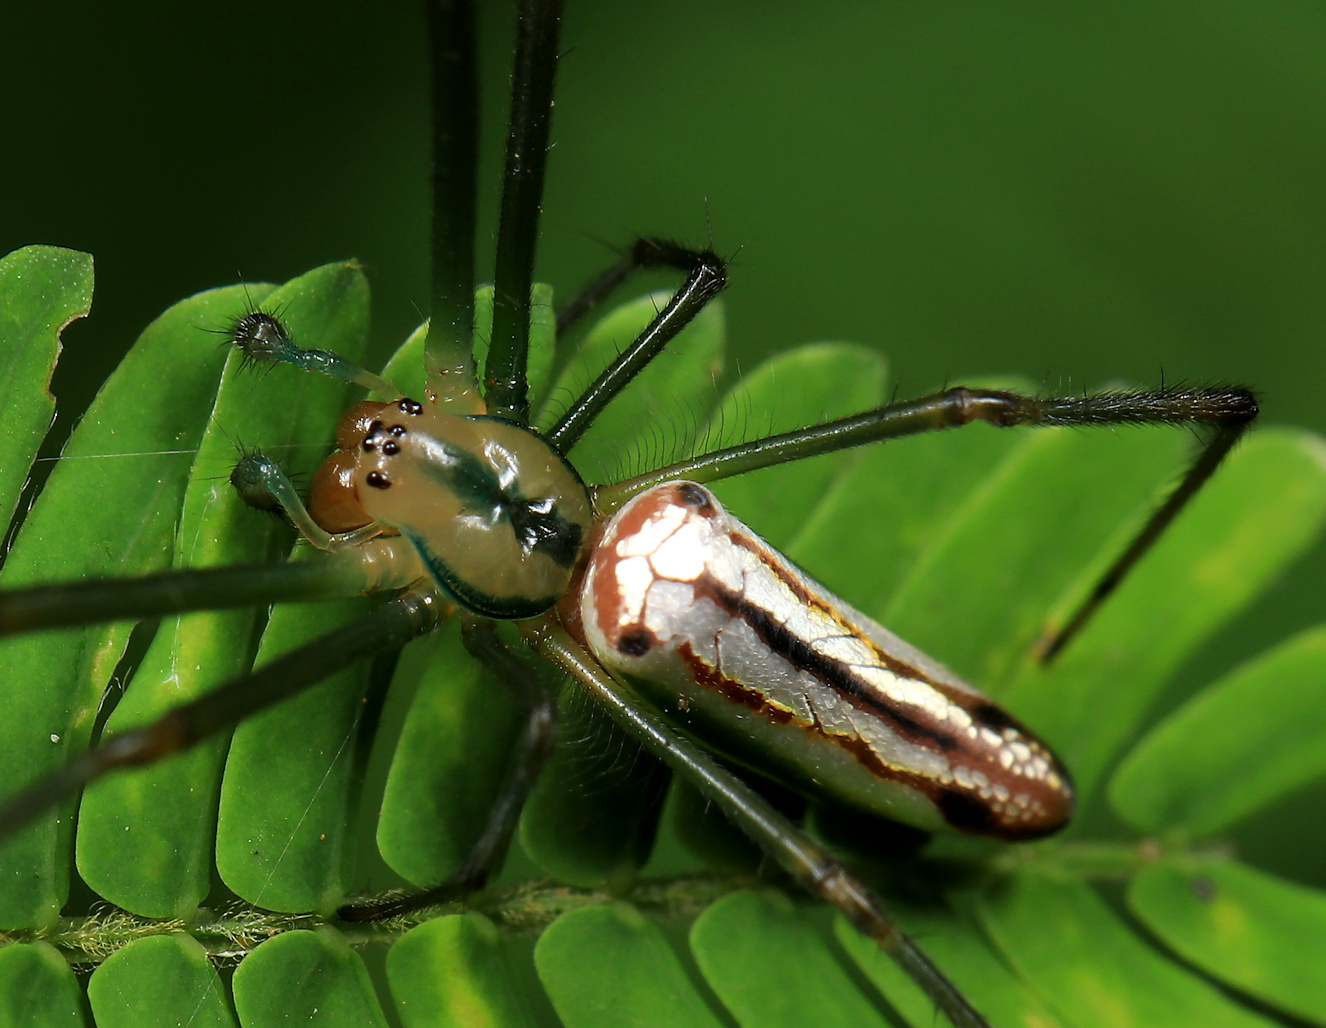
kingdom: Animalia
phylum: Arthropoda
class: Arachnida
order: Araneae
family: Tetragnathidae
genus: Leucauge
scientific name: Leucauge levanderi
